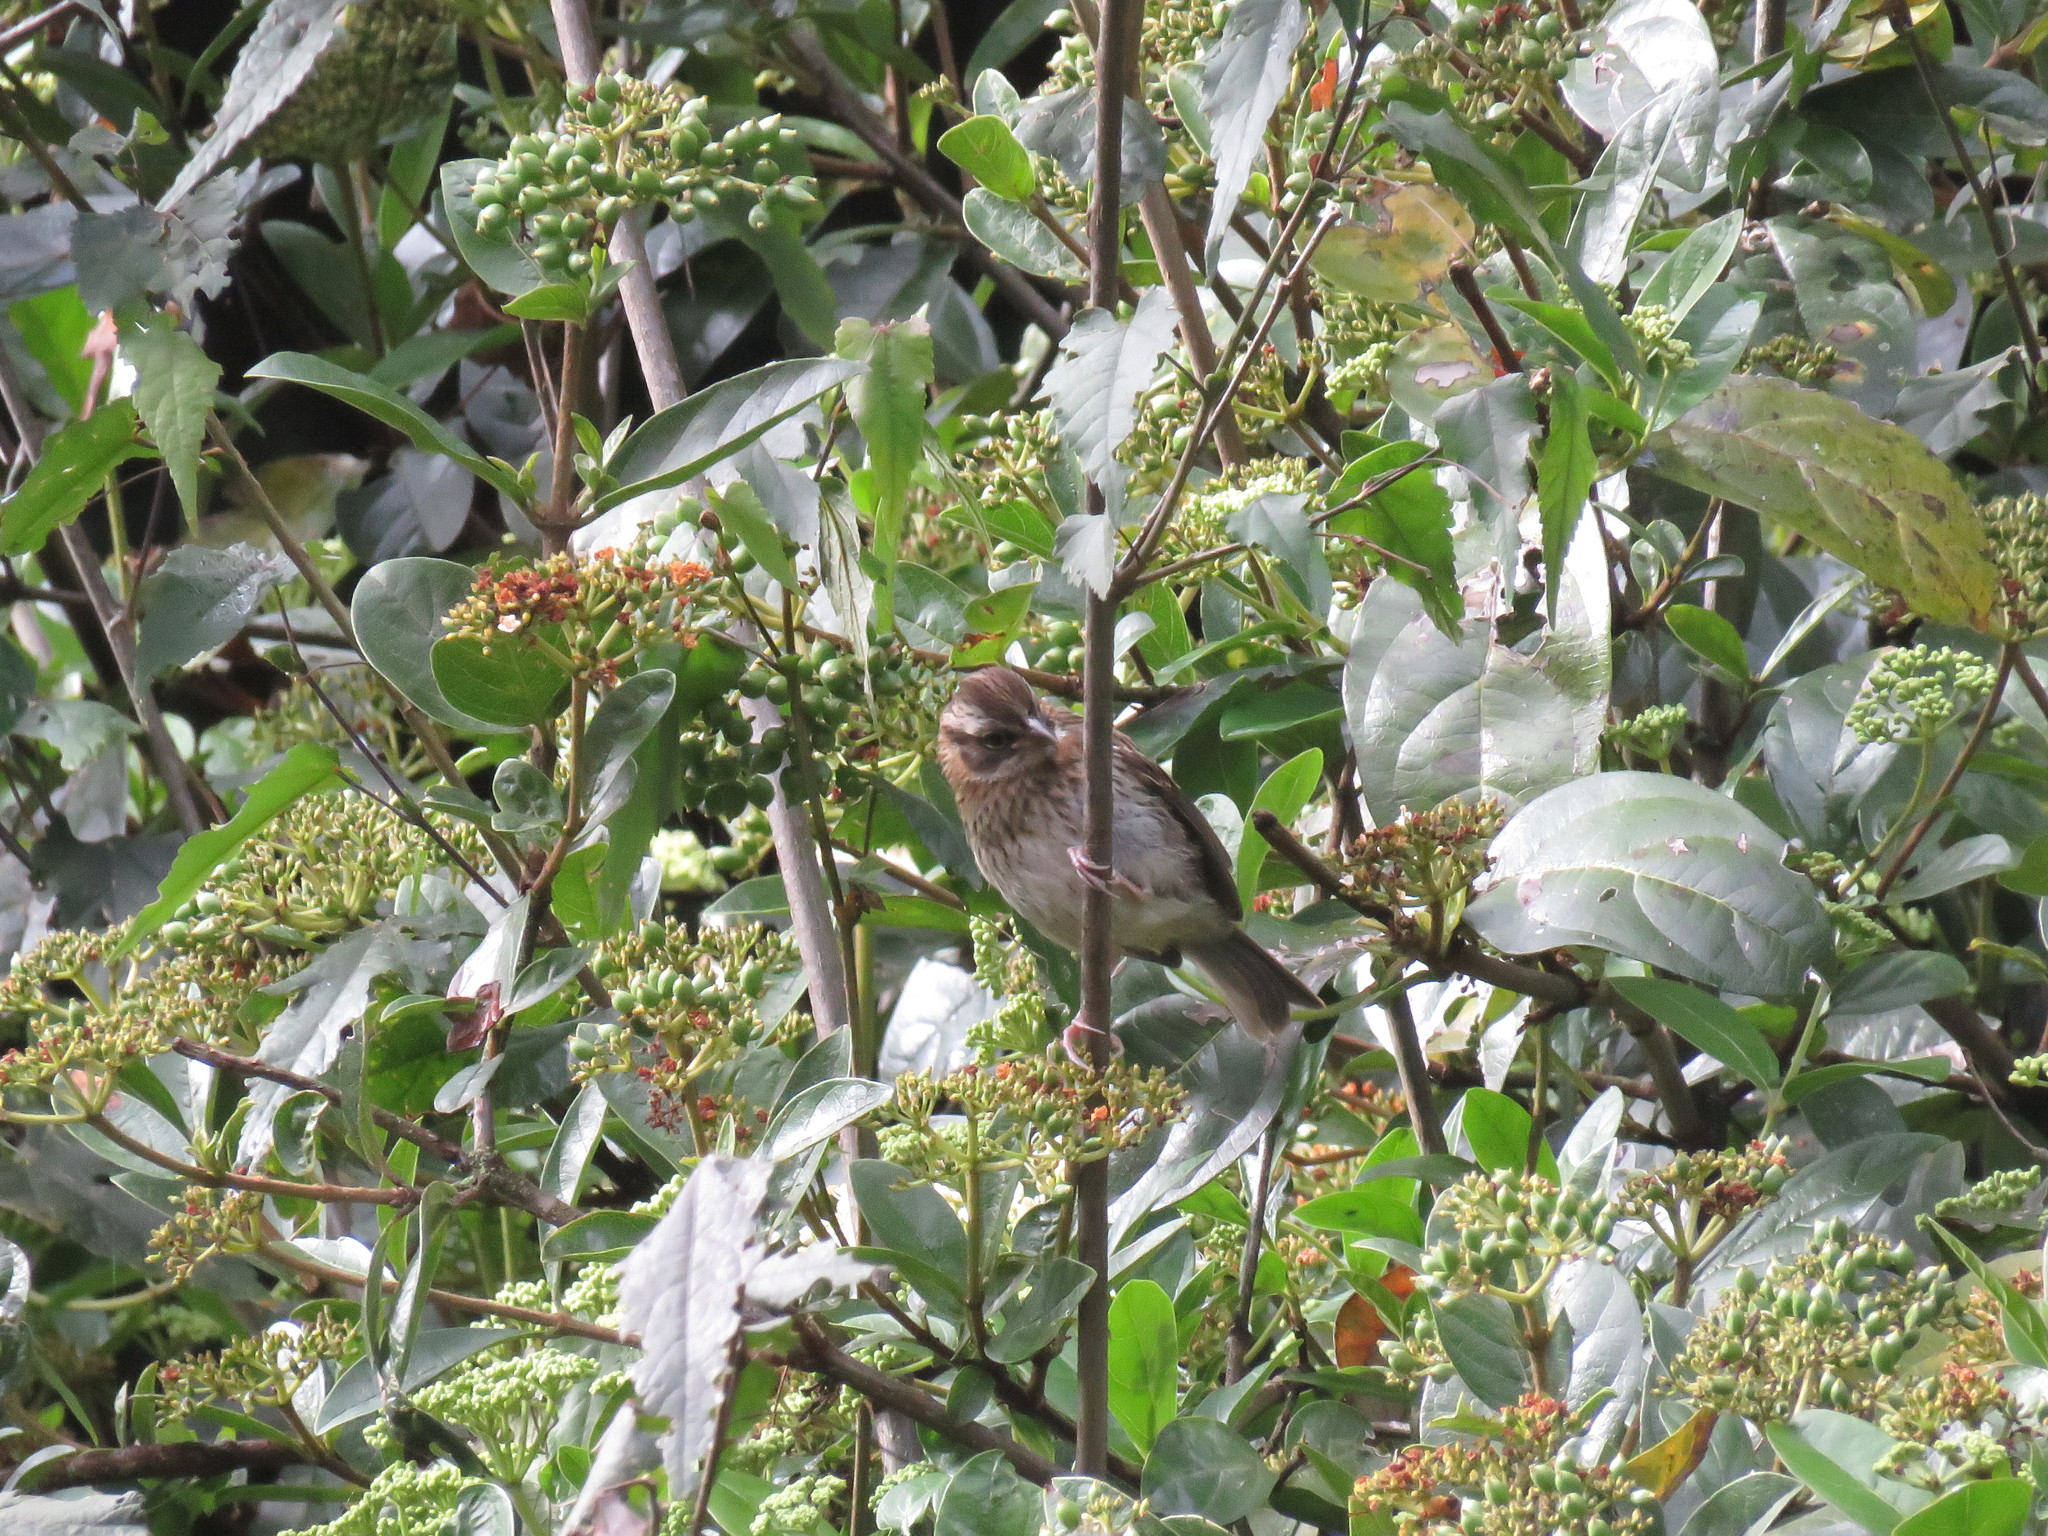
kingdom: Animalia
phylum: Chordata
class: Aves
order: Passeriformes
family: Passerellidae
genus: Zonotrichia
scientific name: Zonotrichia capensis
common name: Rufous-collared sparrow
